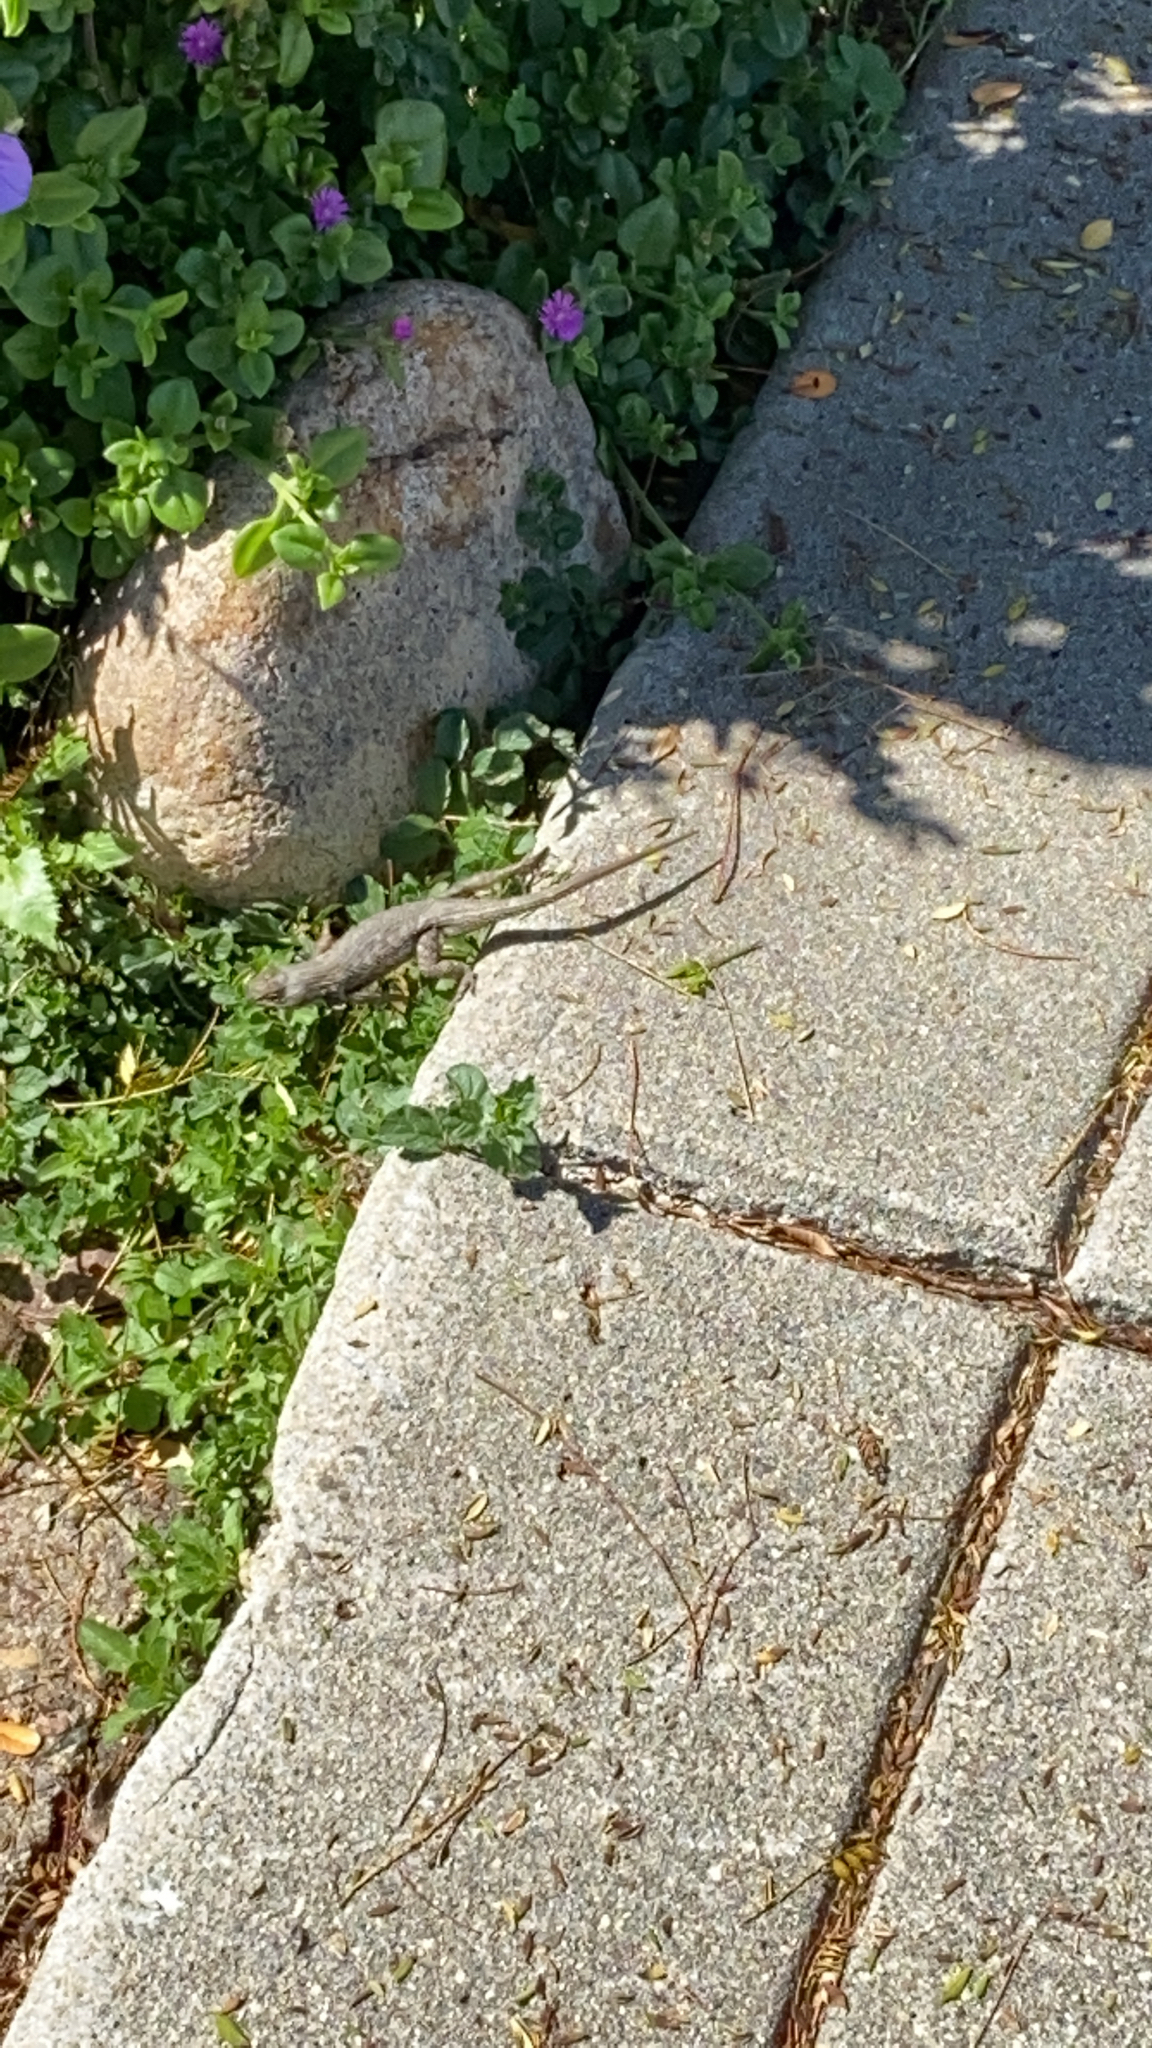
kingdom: Animalia
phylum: Chordata
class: Squamata
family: Phrynosomatidae
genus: Sceloporus
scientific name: Sceloporus occidentalis
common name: Western fence lizard
